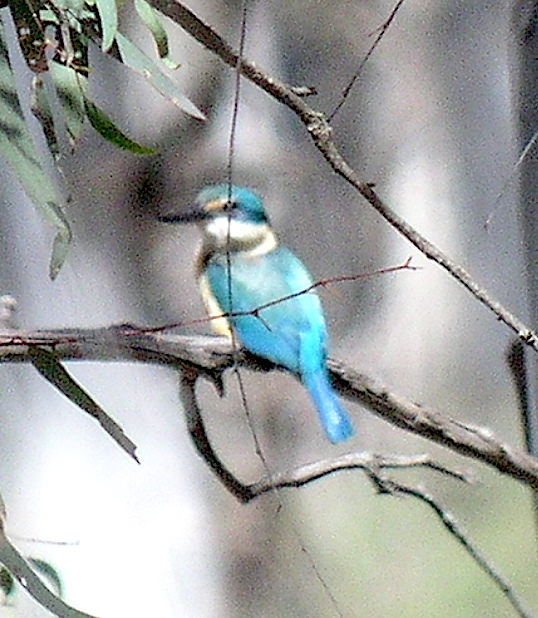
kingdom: Animalia
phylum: Chordata
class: Aves
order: Coraciiformes
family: Alcedinidae
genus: Todiramphus
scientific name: Todiramphus sanctus
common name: Sacred kingfisher
